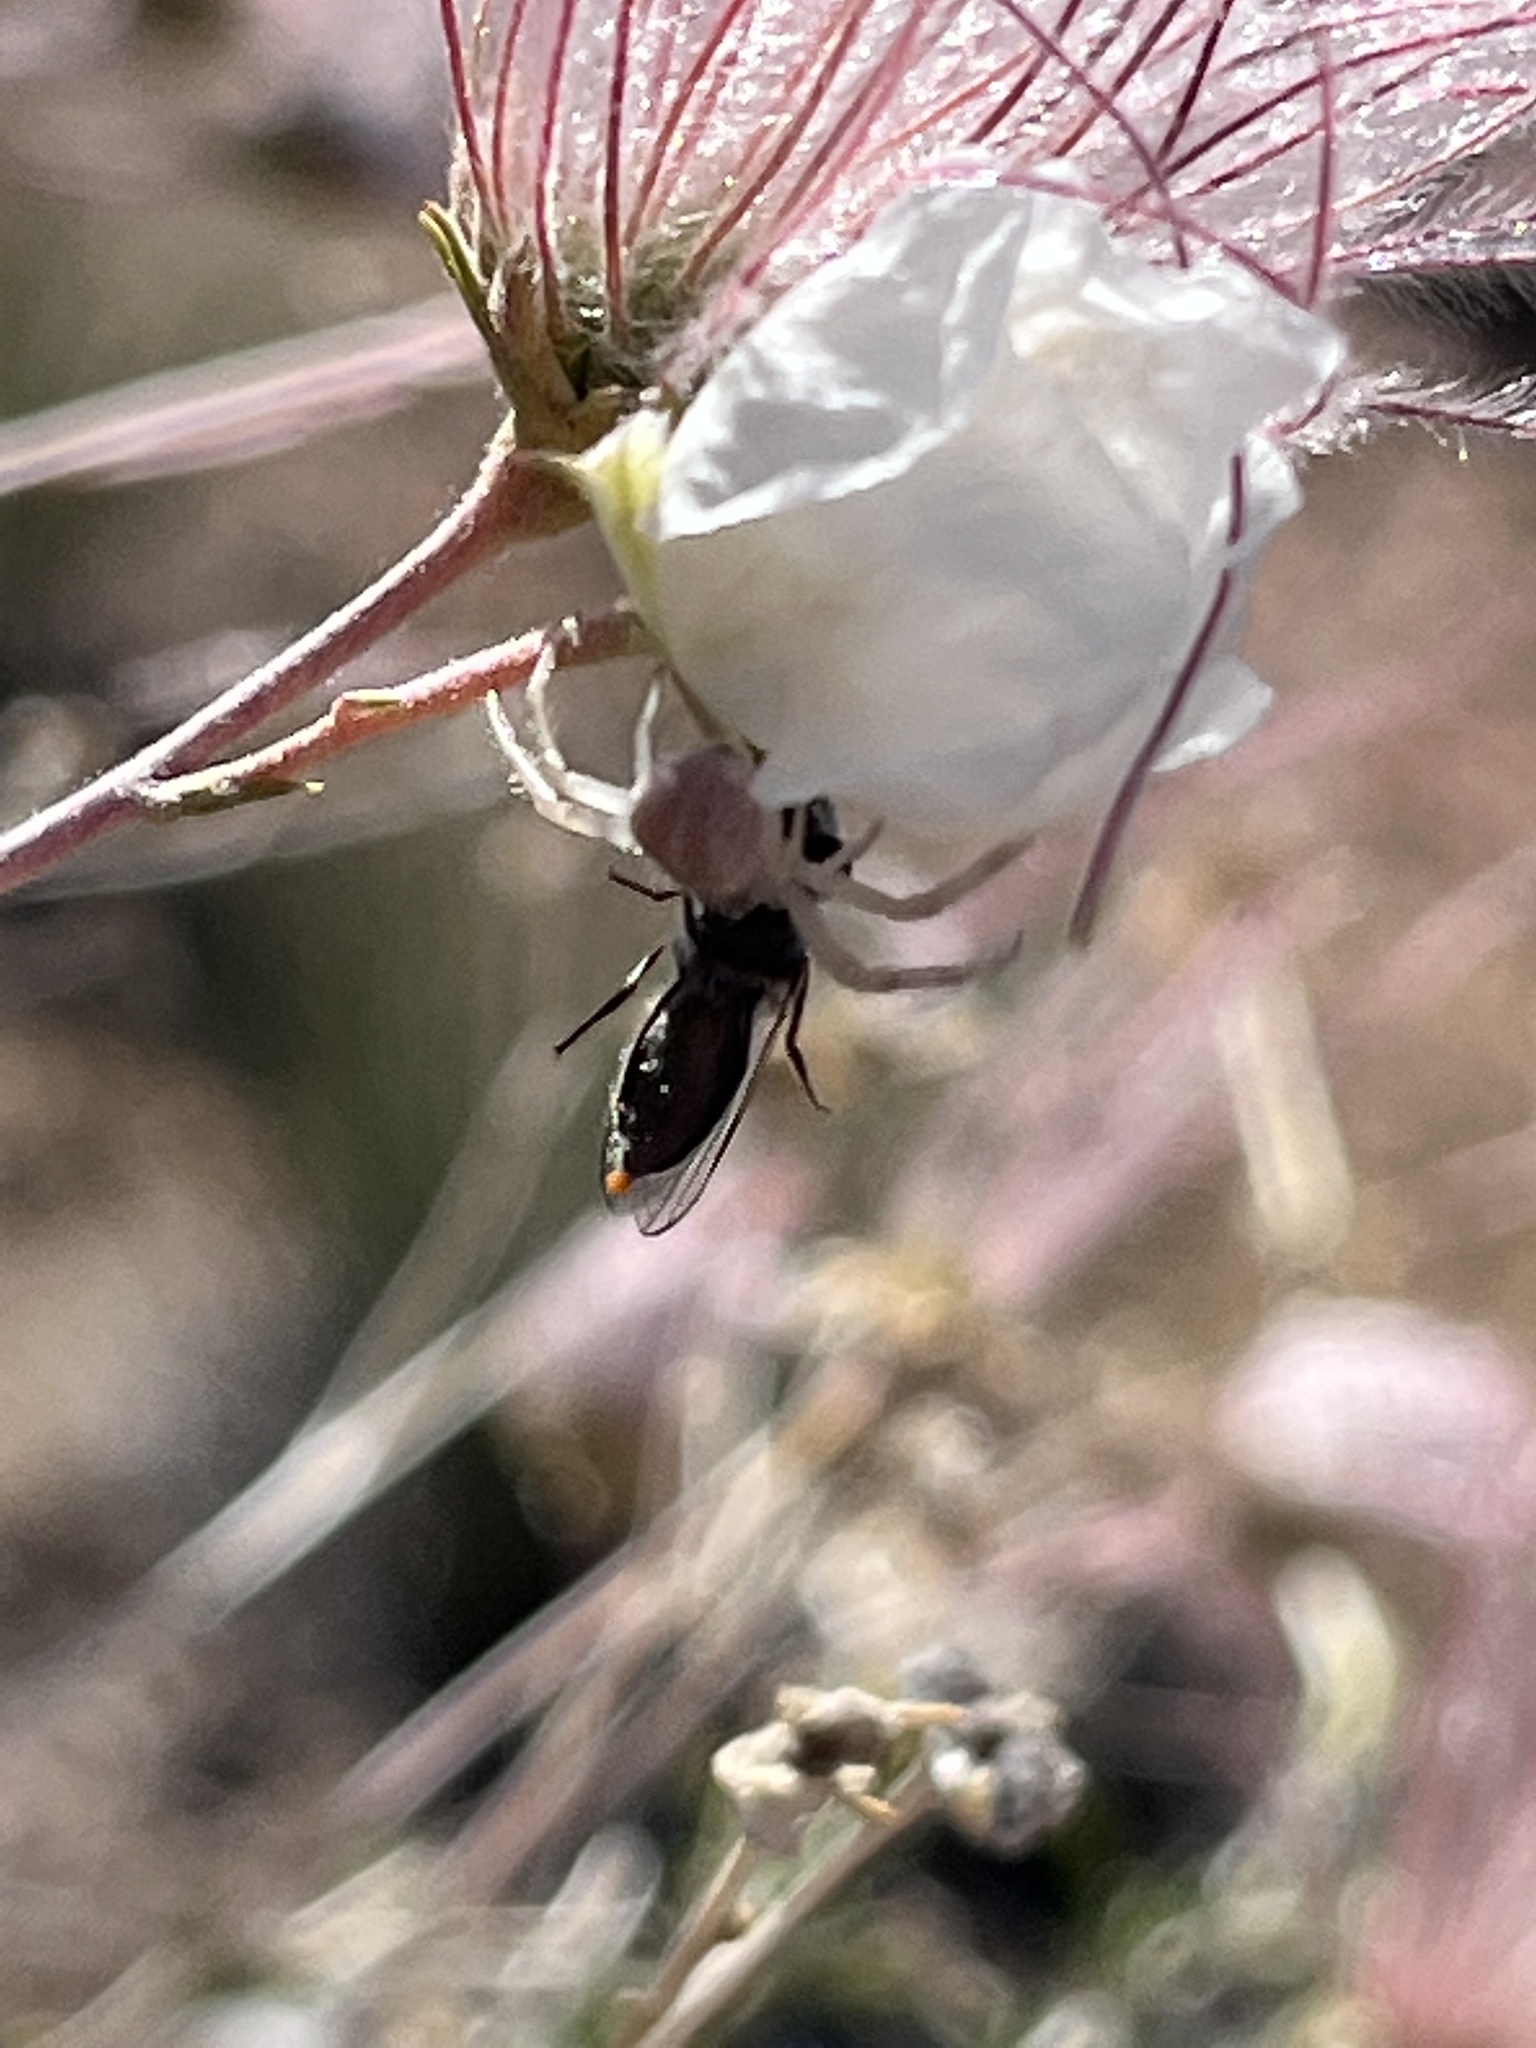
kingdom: Plantae
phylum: Tracheophyta
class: Magnoliopsida
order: Rosales
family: Rosaceae
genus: Fallugia
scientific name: Fallugia paradoxa
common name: Apache-plume
